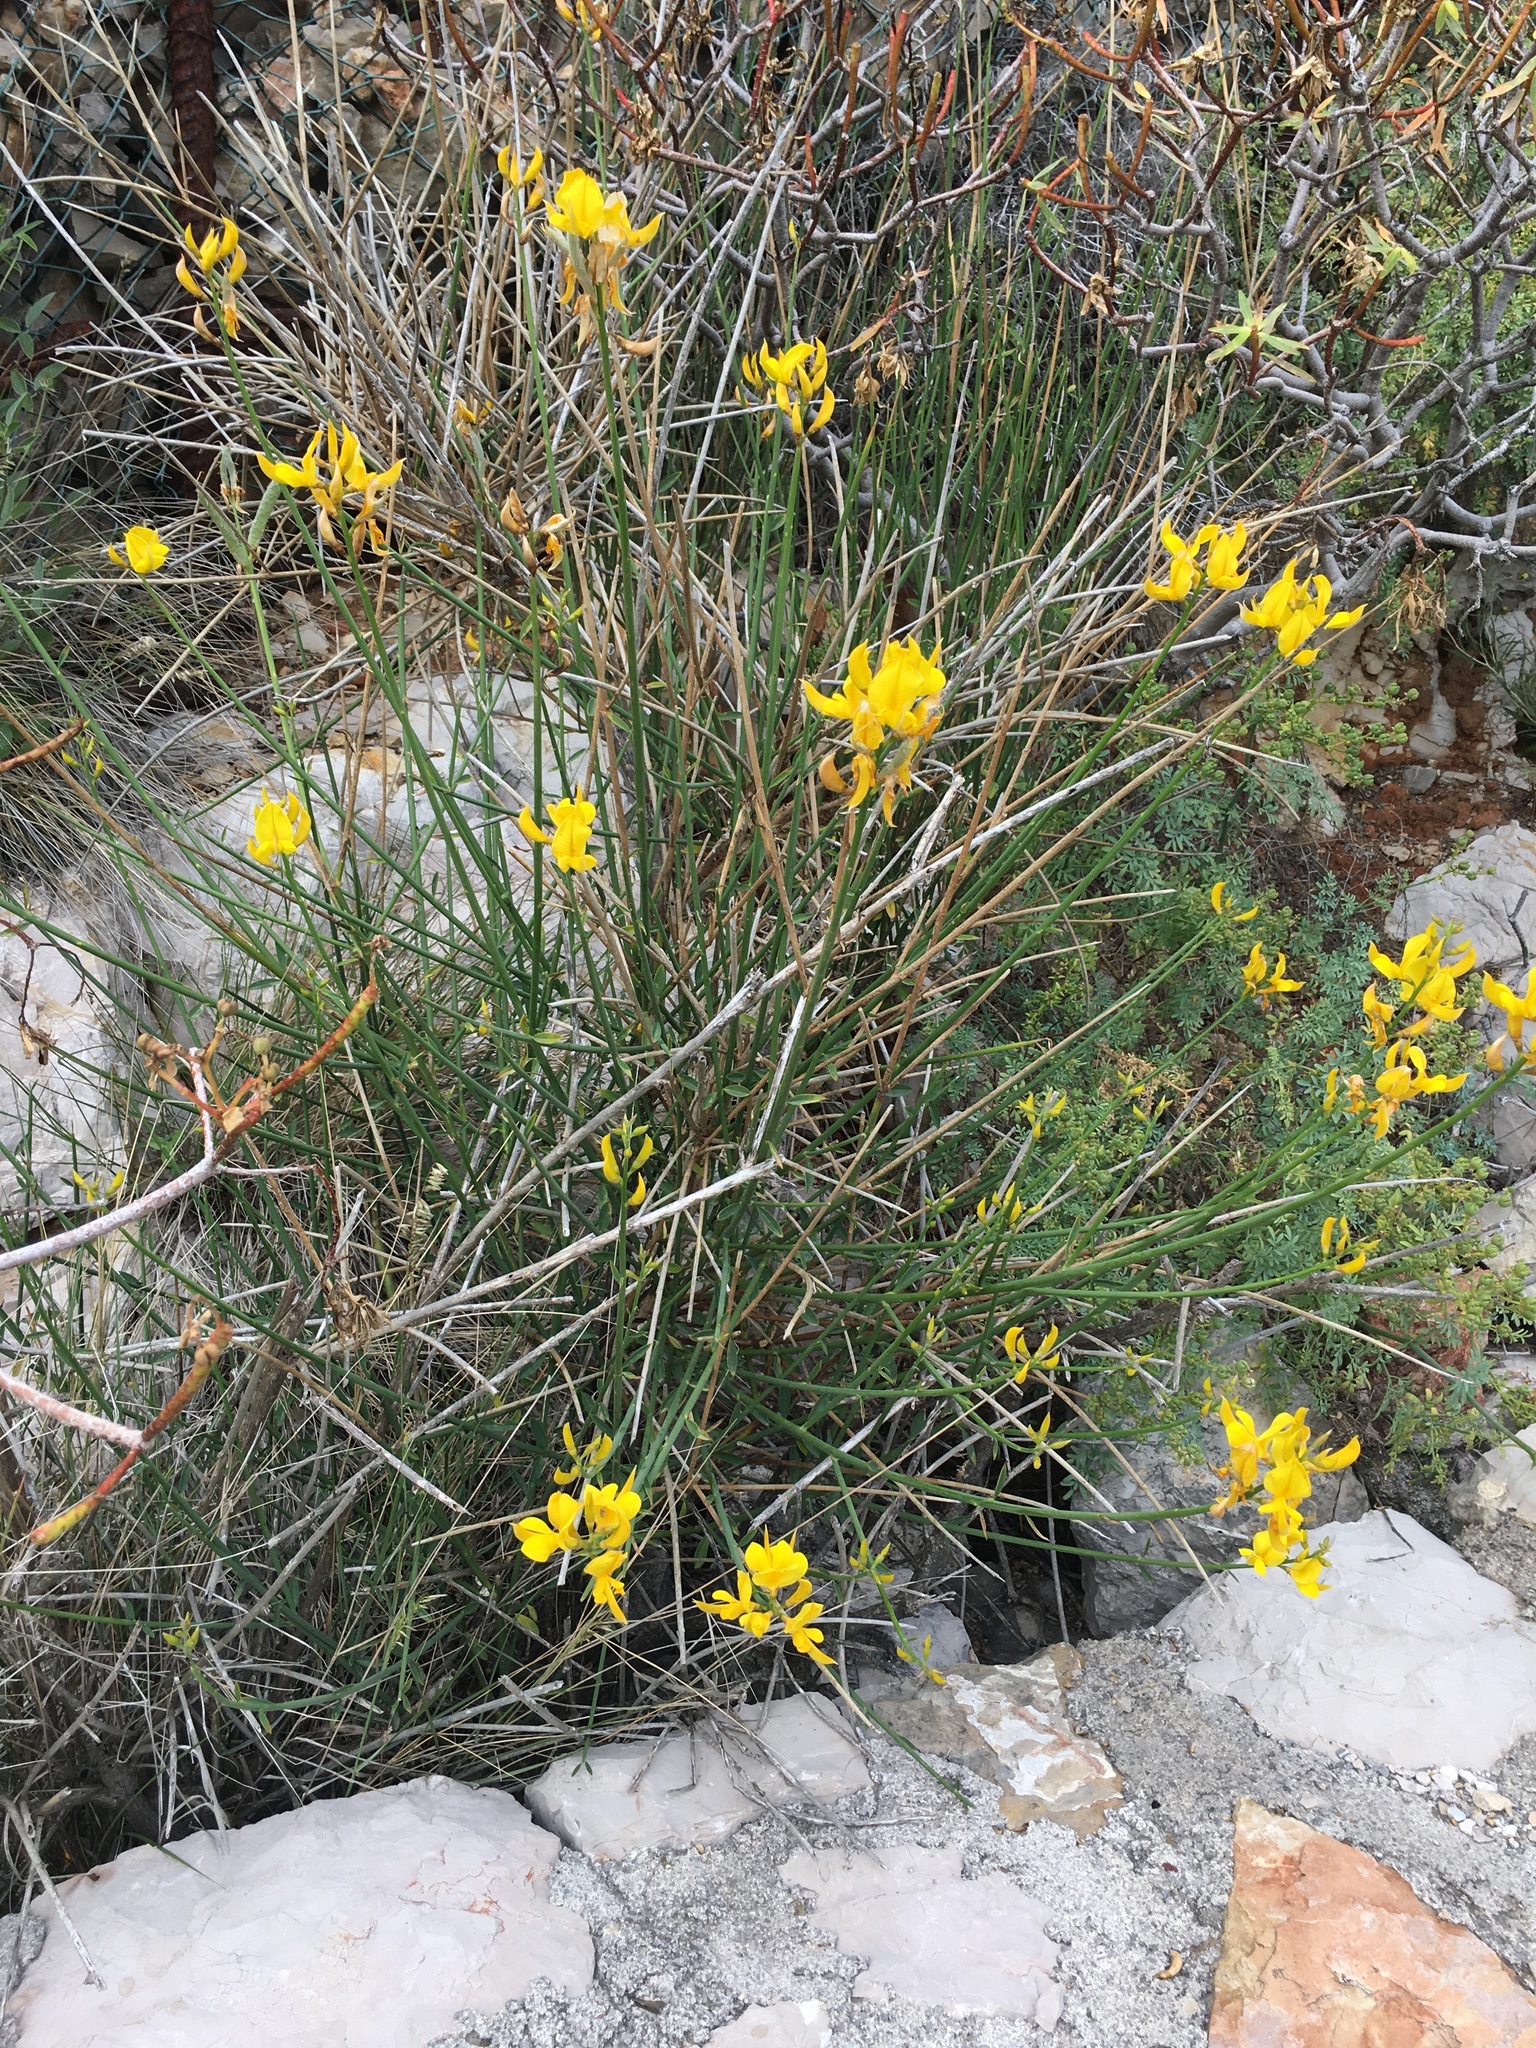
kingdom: Plantae
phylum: Tracheophyta
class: Magnoliopsida
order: Fabales
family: Fabaceae
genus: Spartium
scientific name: Spartium junceum
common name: Spanish broom
